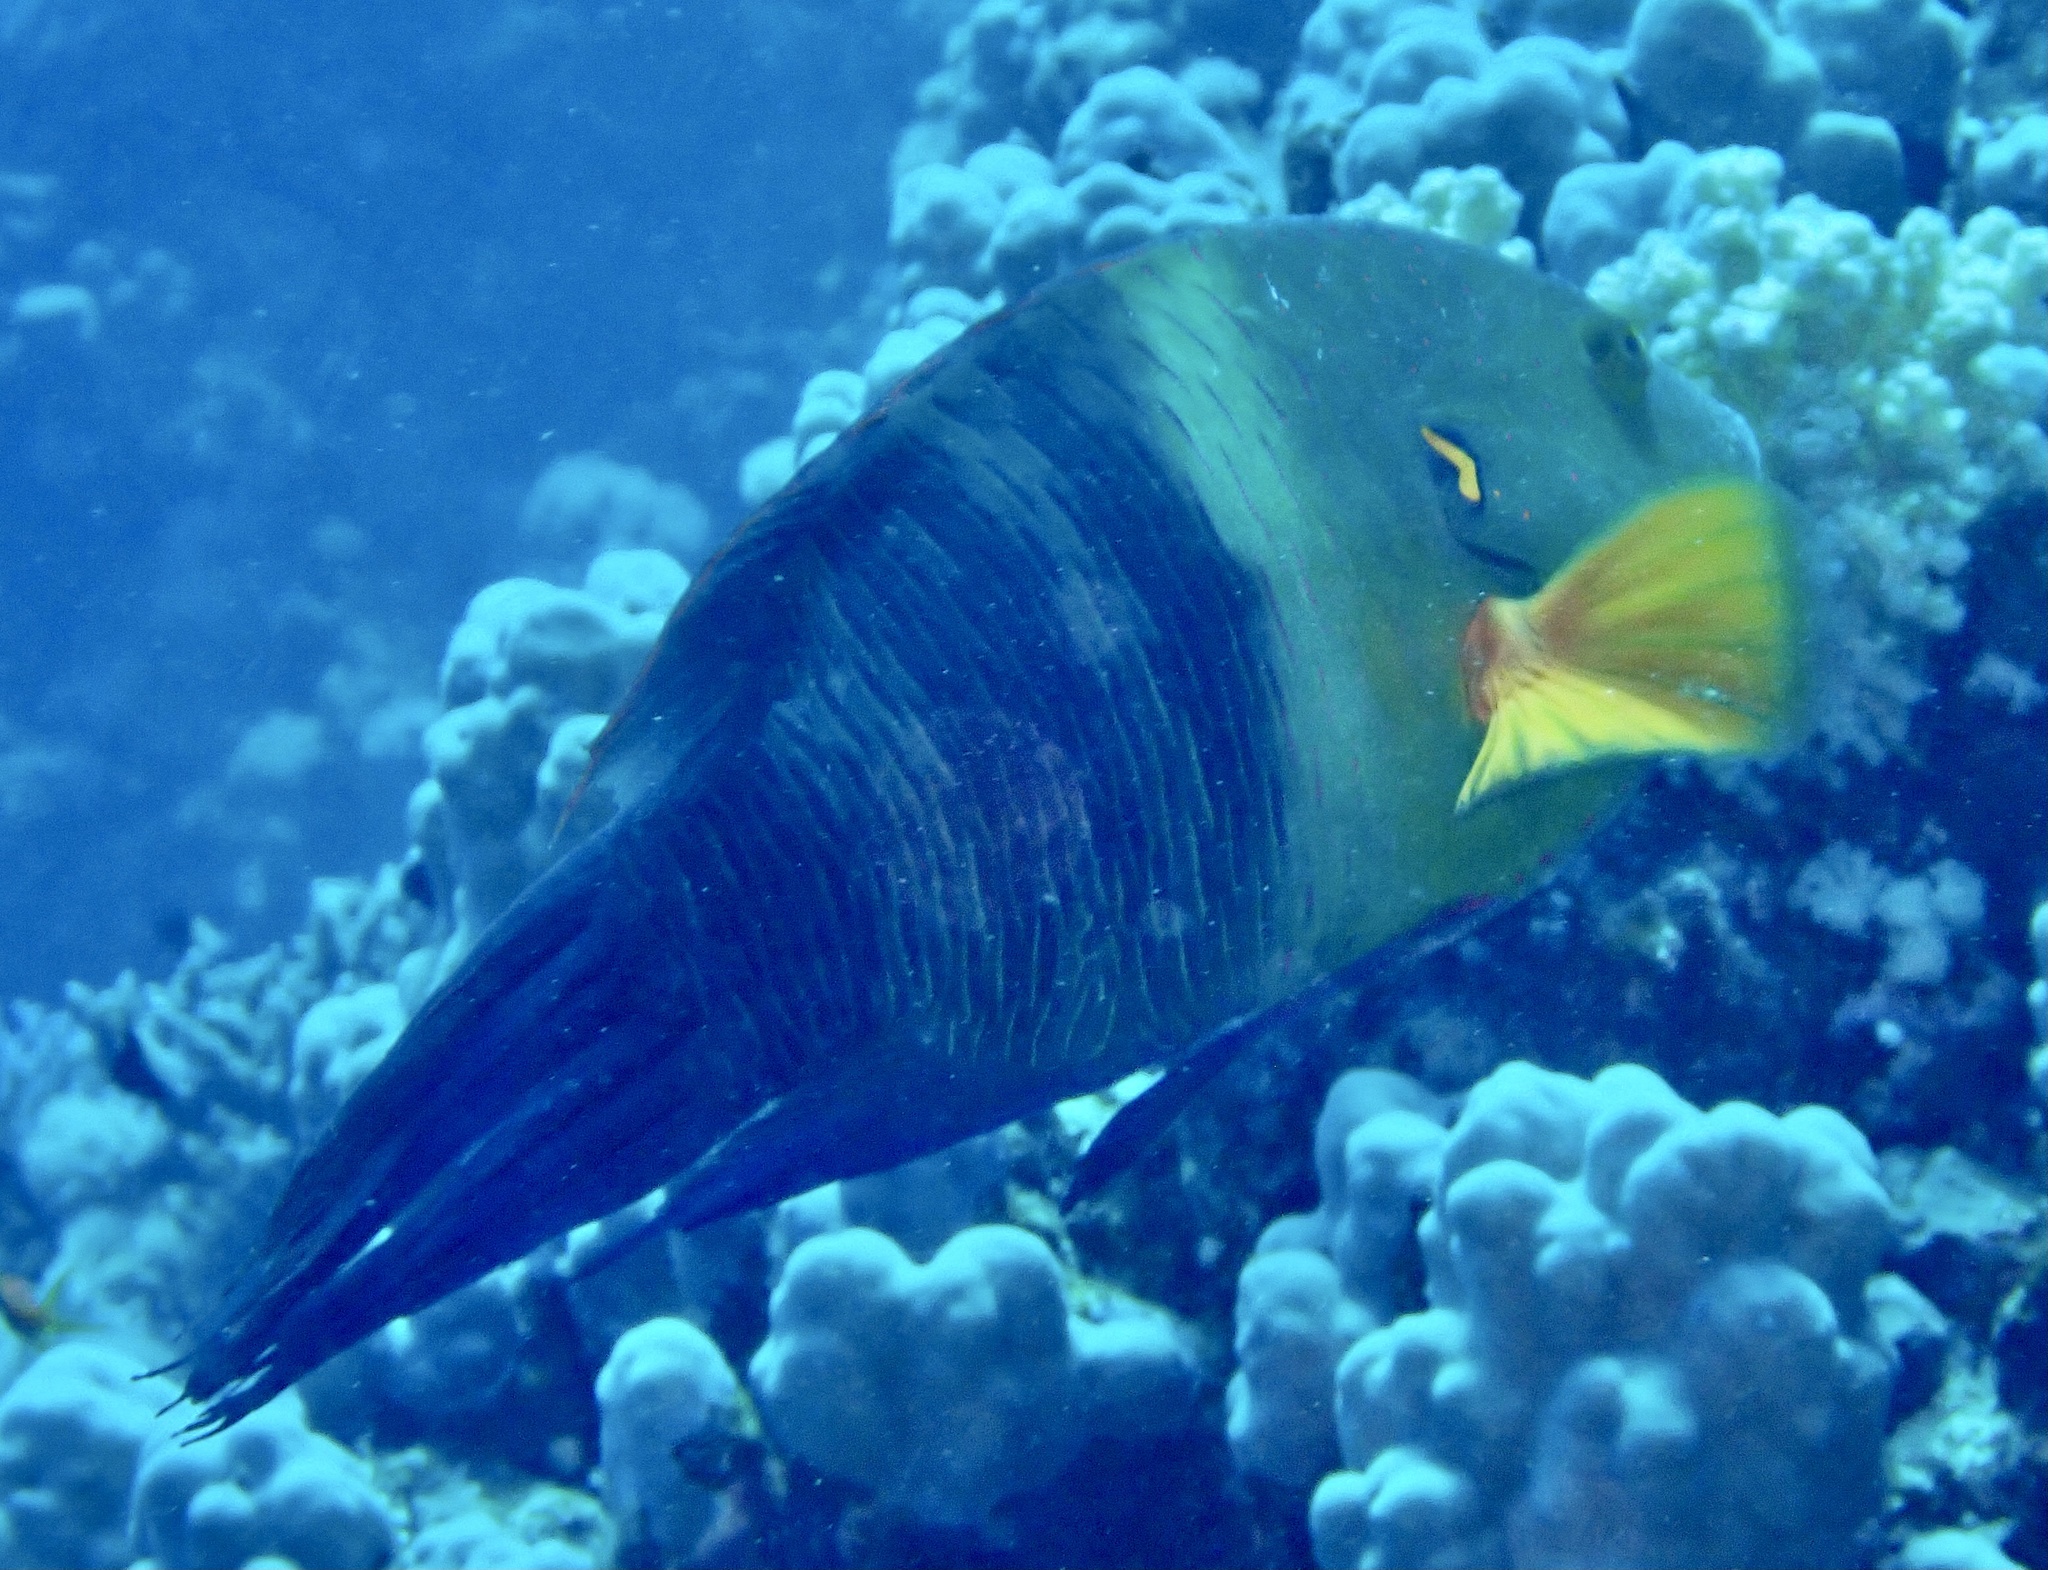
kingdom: Animalia
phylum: Chordata
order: Perciformes
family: Labridae
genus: Cheilinus
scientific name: Cheilinus lunulatus
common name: Broomtail wrasse
